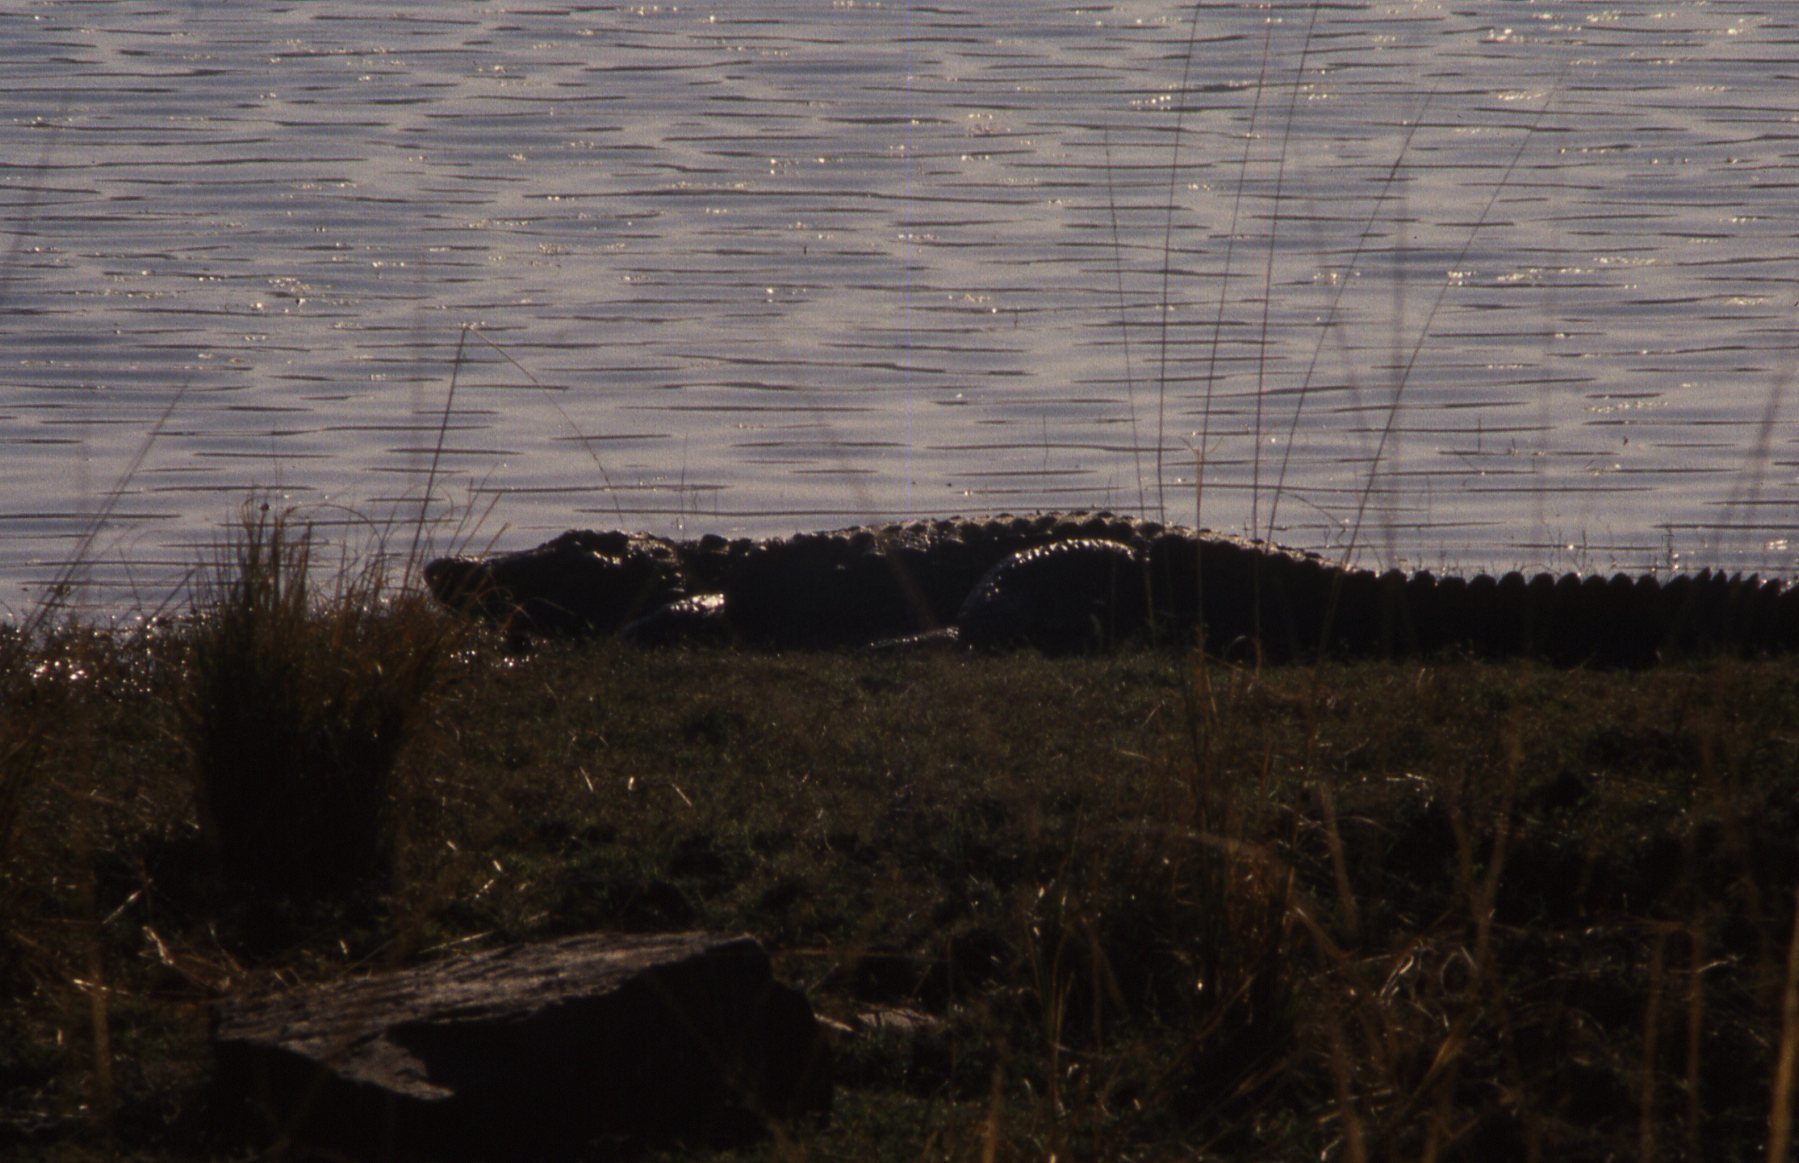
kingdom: Animalia
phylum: Chordata
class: Crocodylia
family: Crocodylidae
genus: Crocodylus
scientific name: Crocodylus palustris
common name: Mugger crocodile
